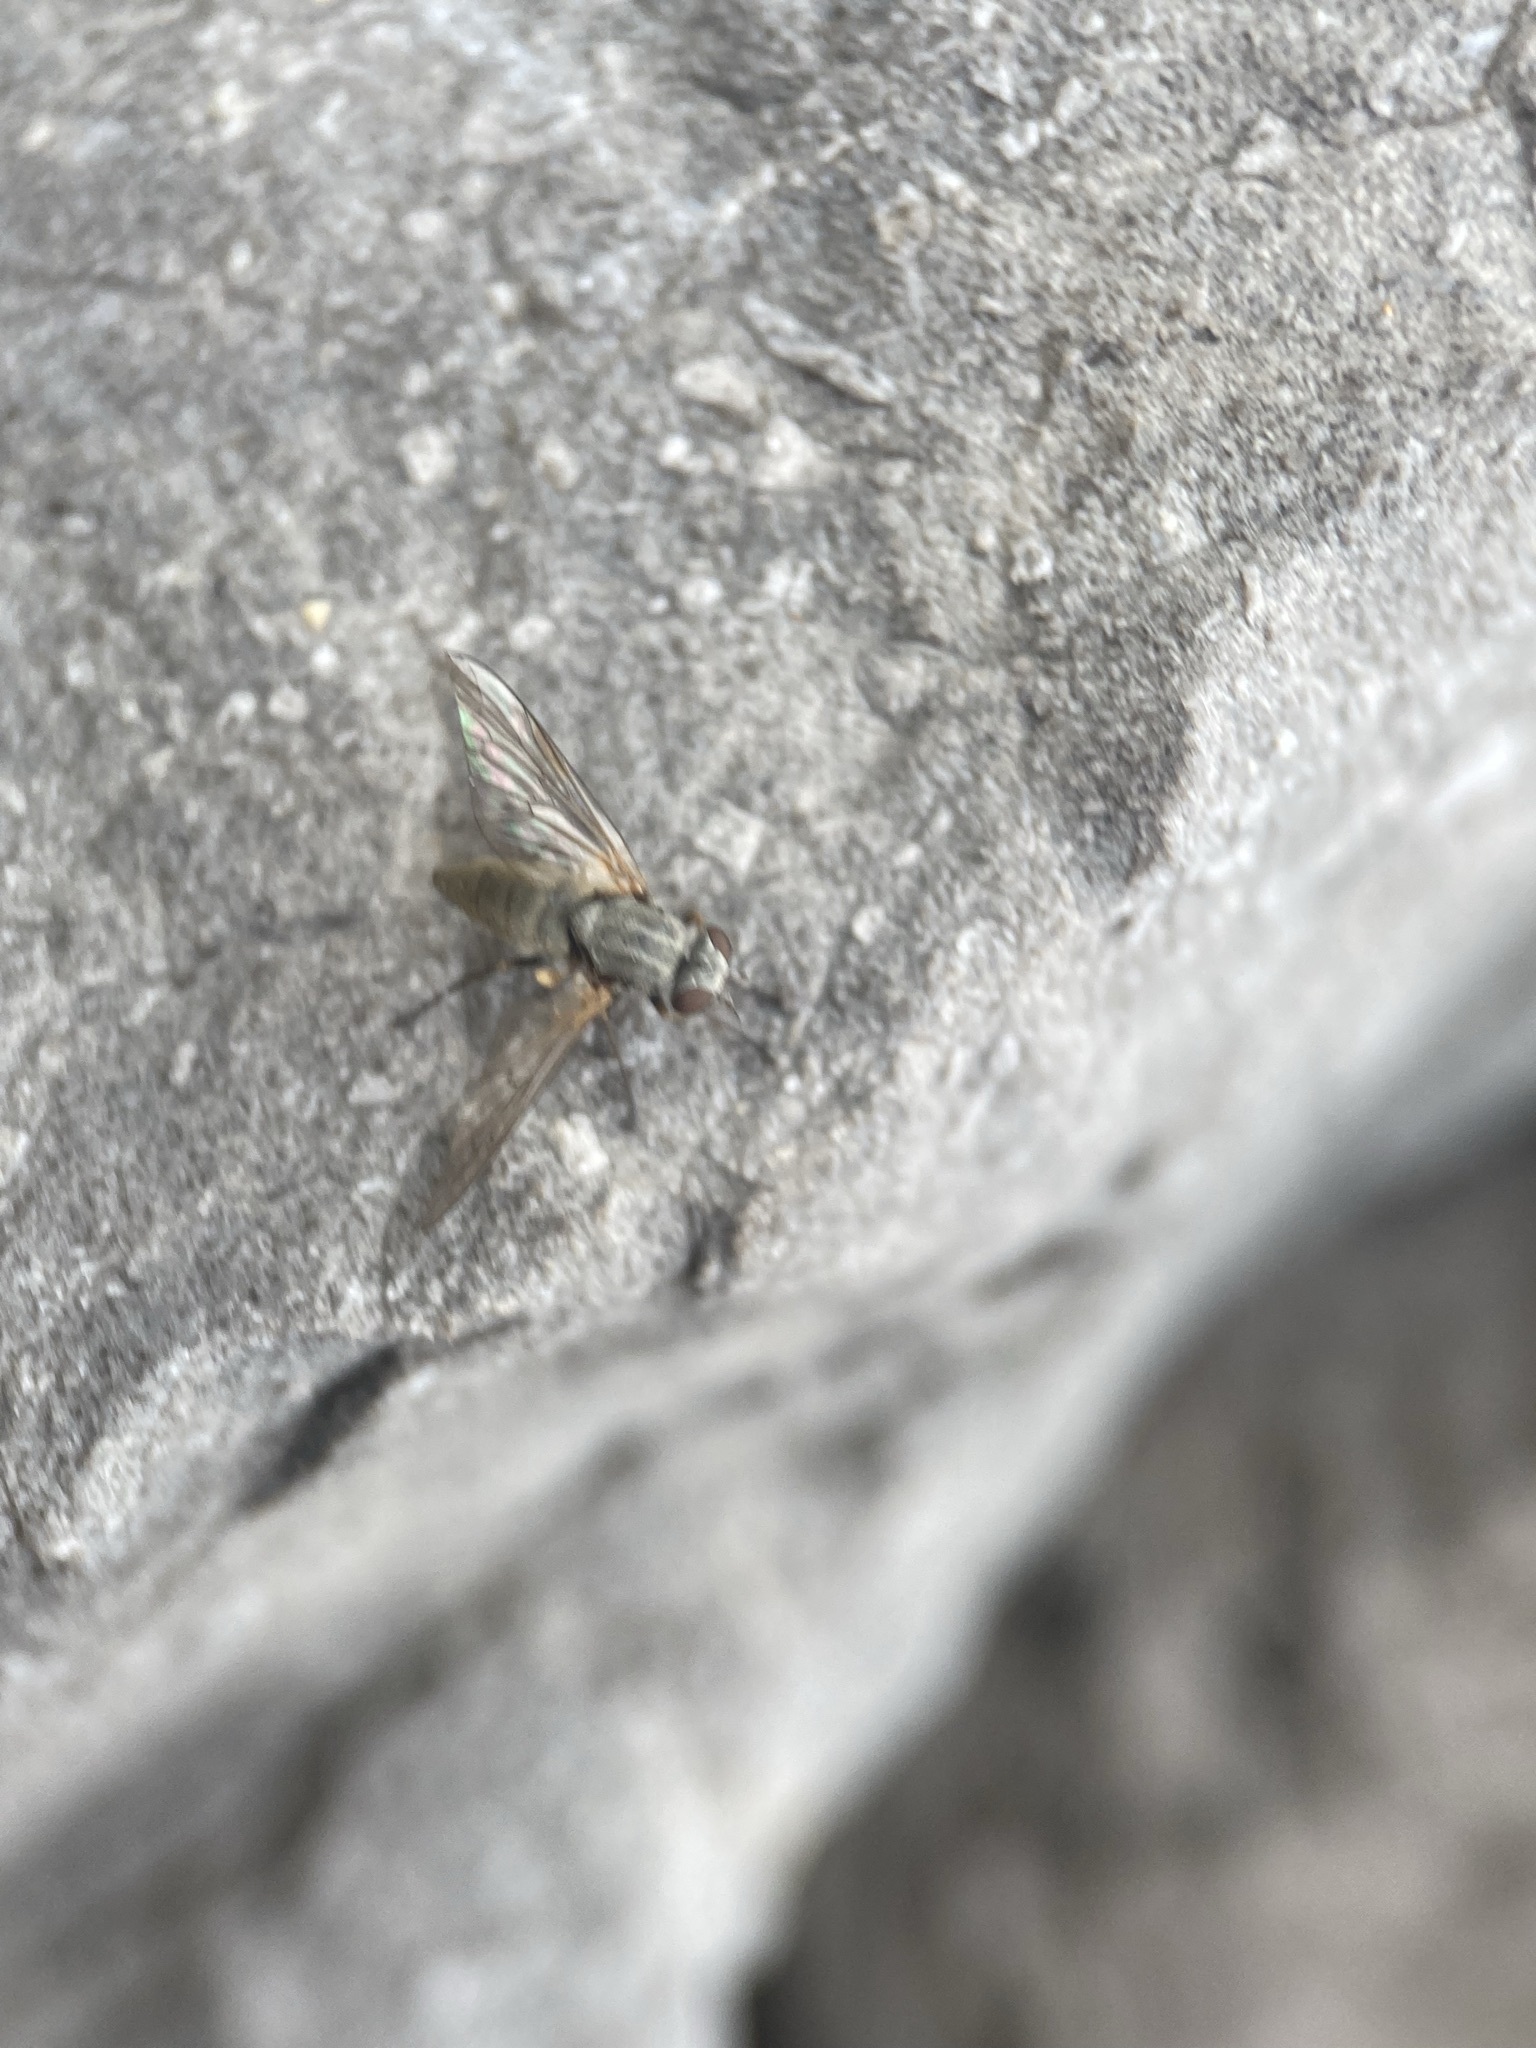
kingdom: Animalia
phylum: Arthropoda
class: Insecta
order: Diptera
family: Rhagionidae
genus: Symphoromyia
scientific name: Symphoromyia
